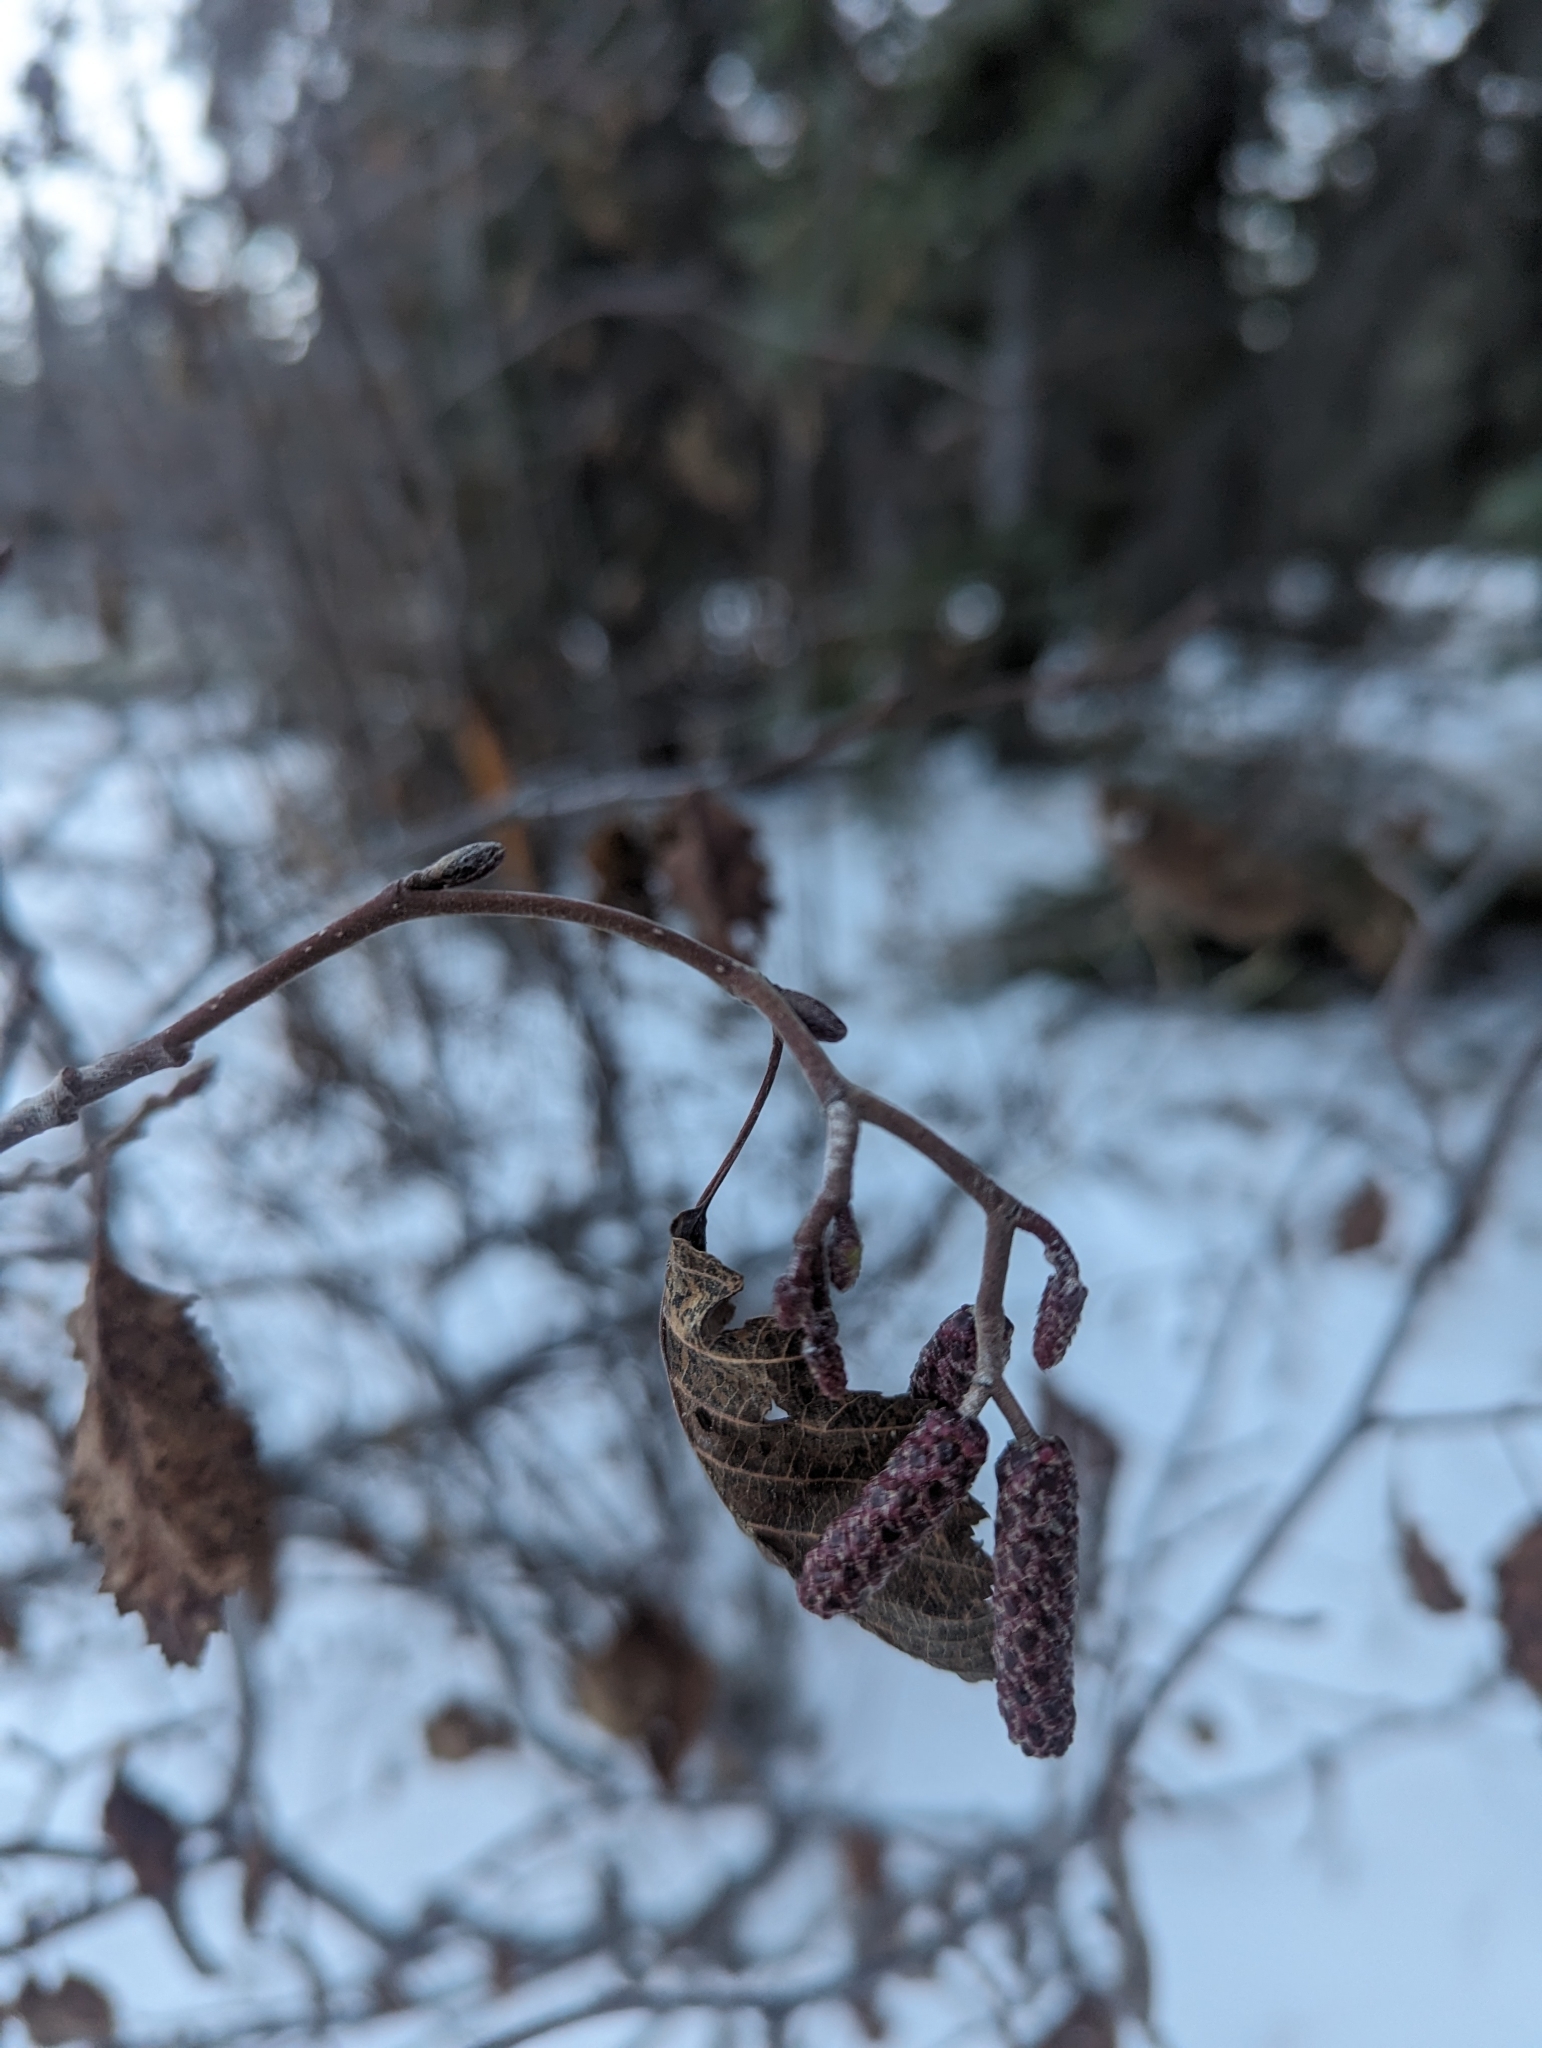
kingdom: Plantae
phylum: Tracheophyta
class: Magnoliopsida
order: Fagales
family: Betulaceae
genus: Alnus
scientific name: Alnus incana
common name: Grey alder
